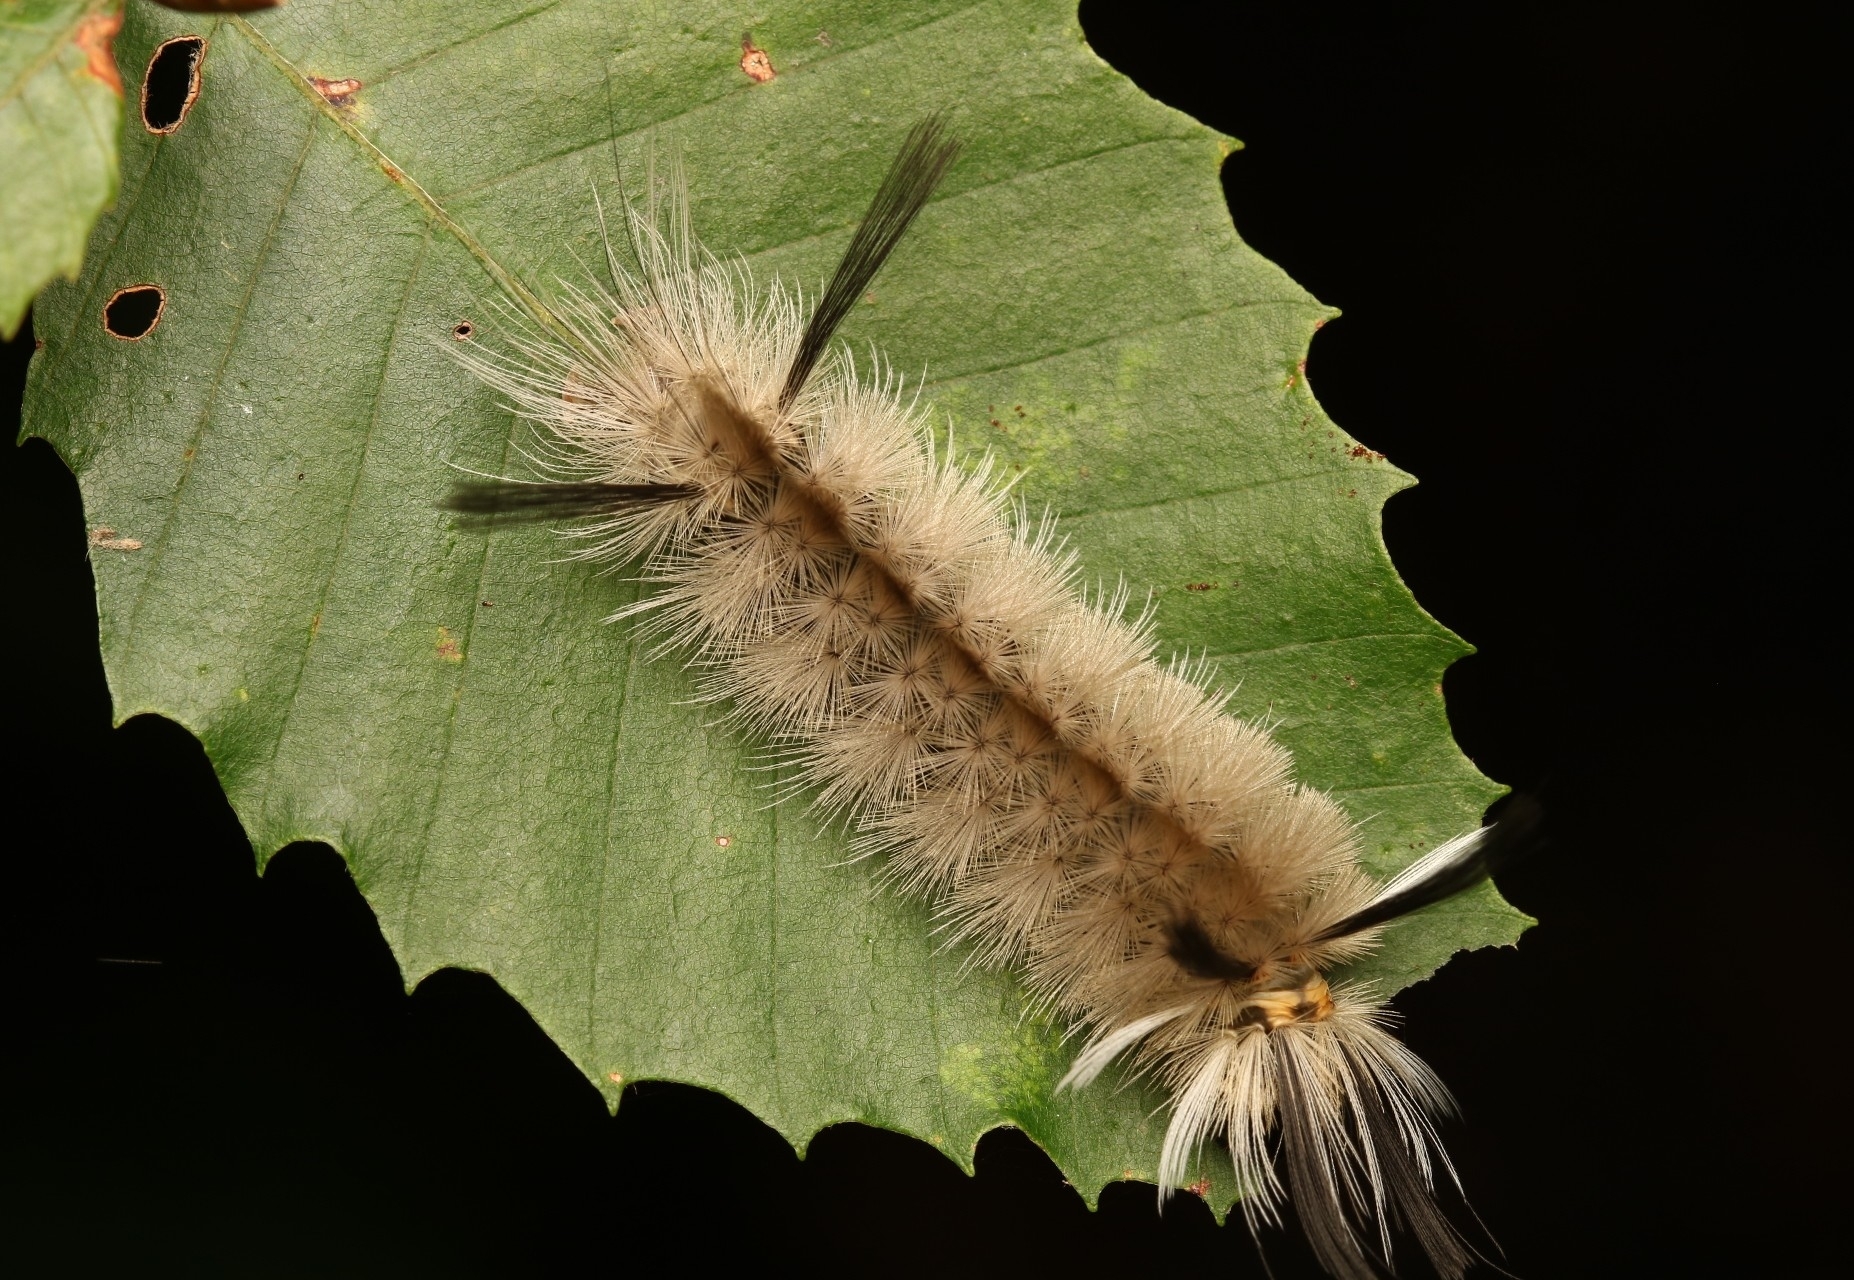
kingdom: Animalia
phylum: Arthropoda
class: Insecta
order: Lepidoptera
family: Erebidae
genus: Halysidota
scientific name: Halysidota tessellaris
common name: Banded tussock moth
